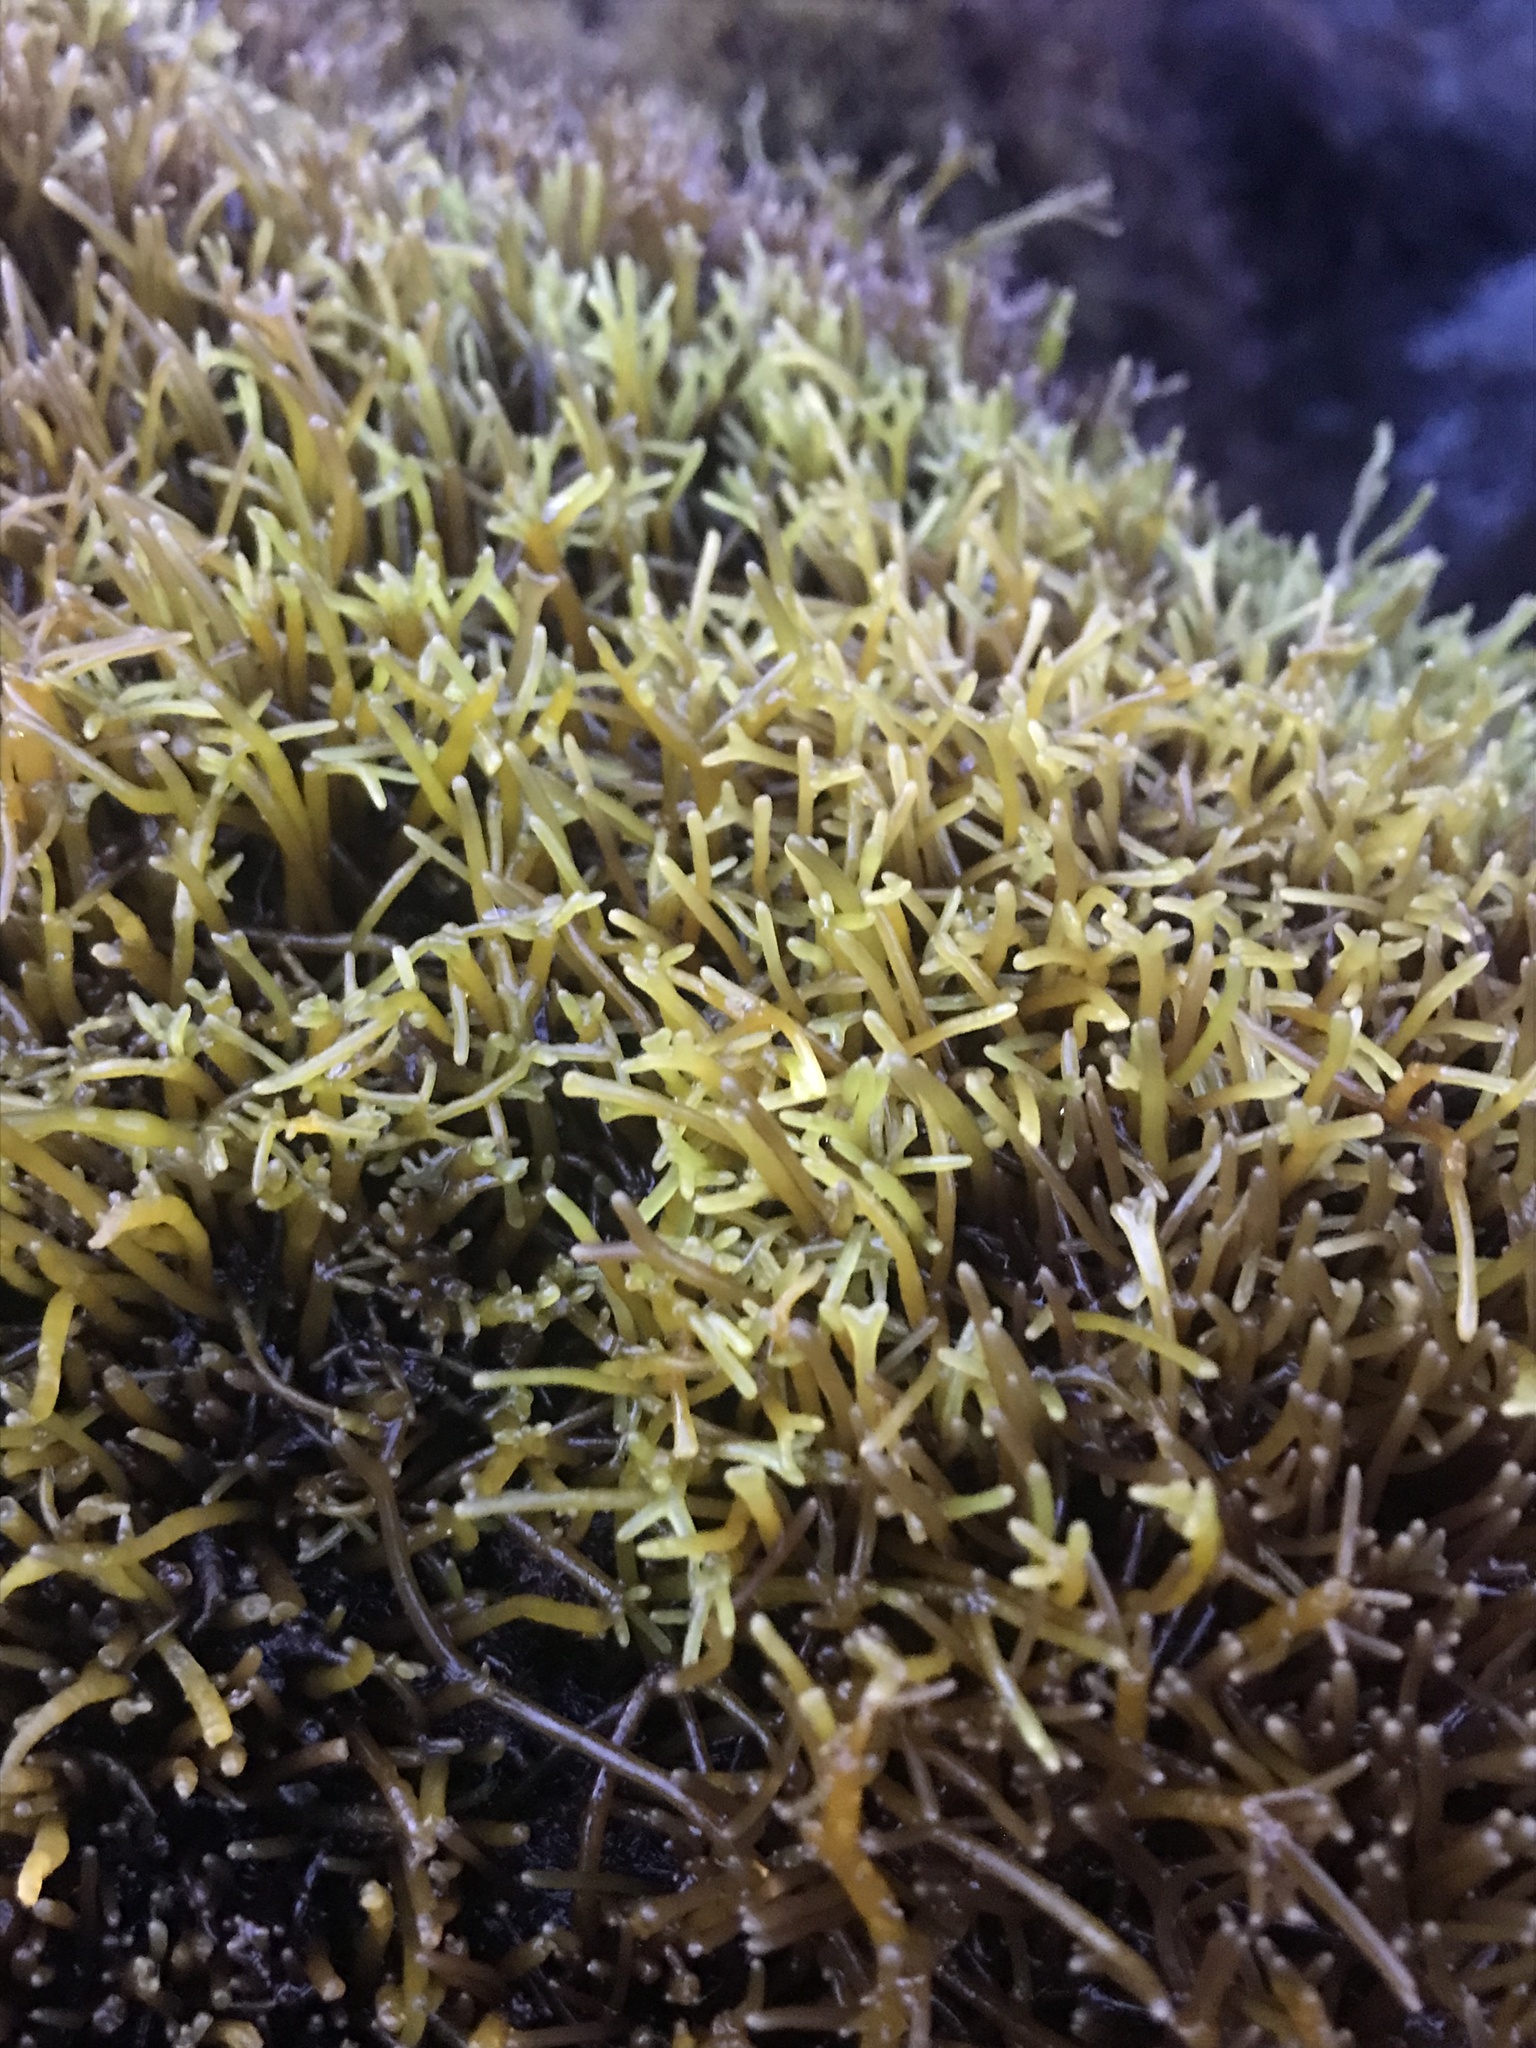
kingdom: Plantae
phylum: Rhodophyta
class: Florideophyceae
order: Gigartinales
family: Phyllophoraceae
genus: Gymnogongrus
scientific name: Gymnogongrus durvillei
